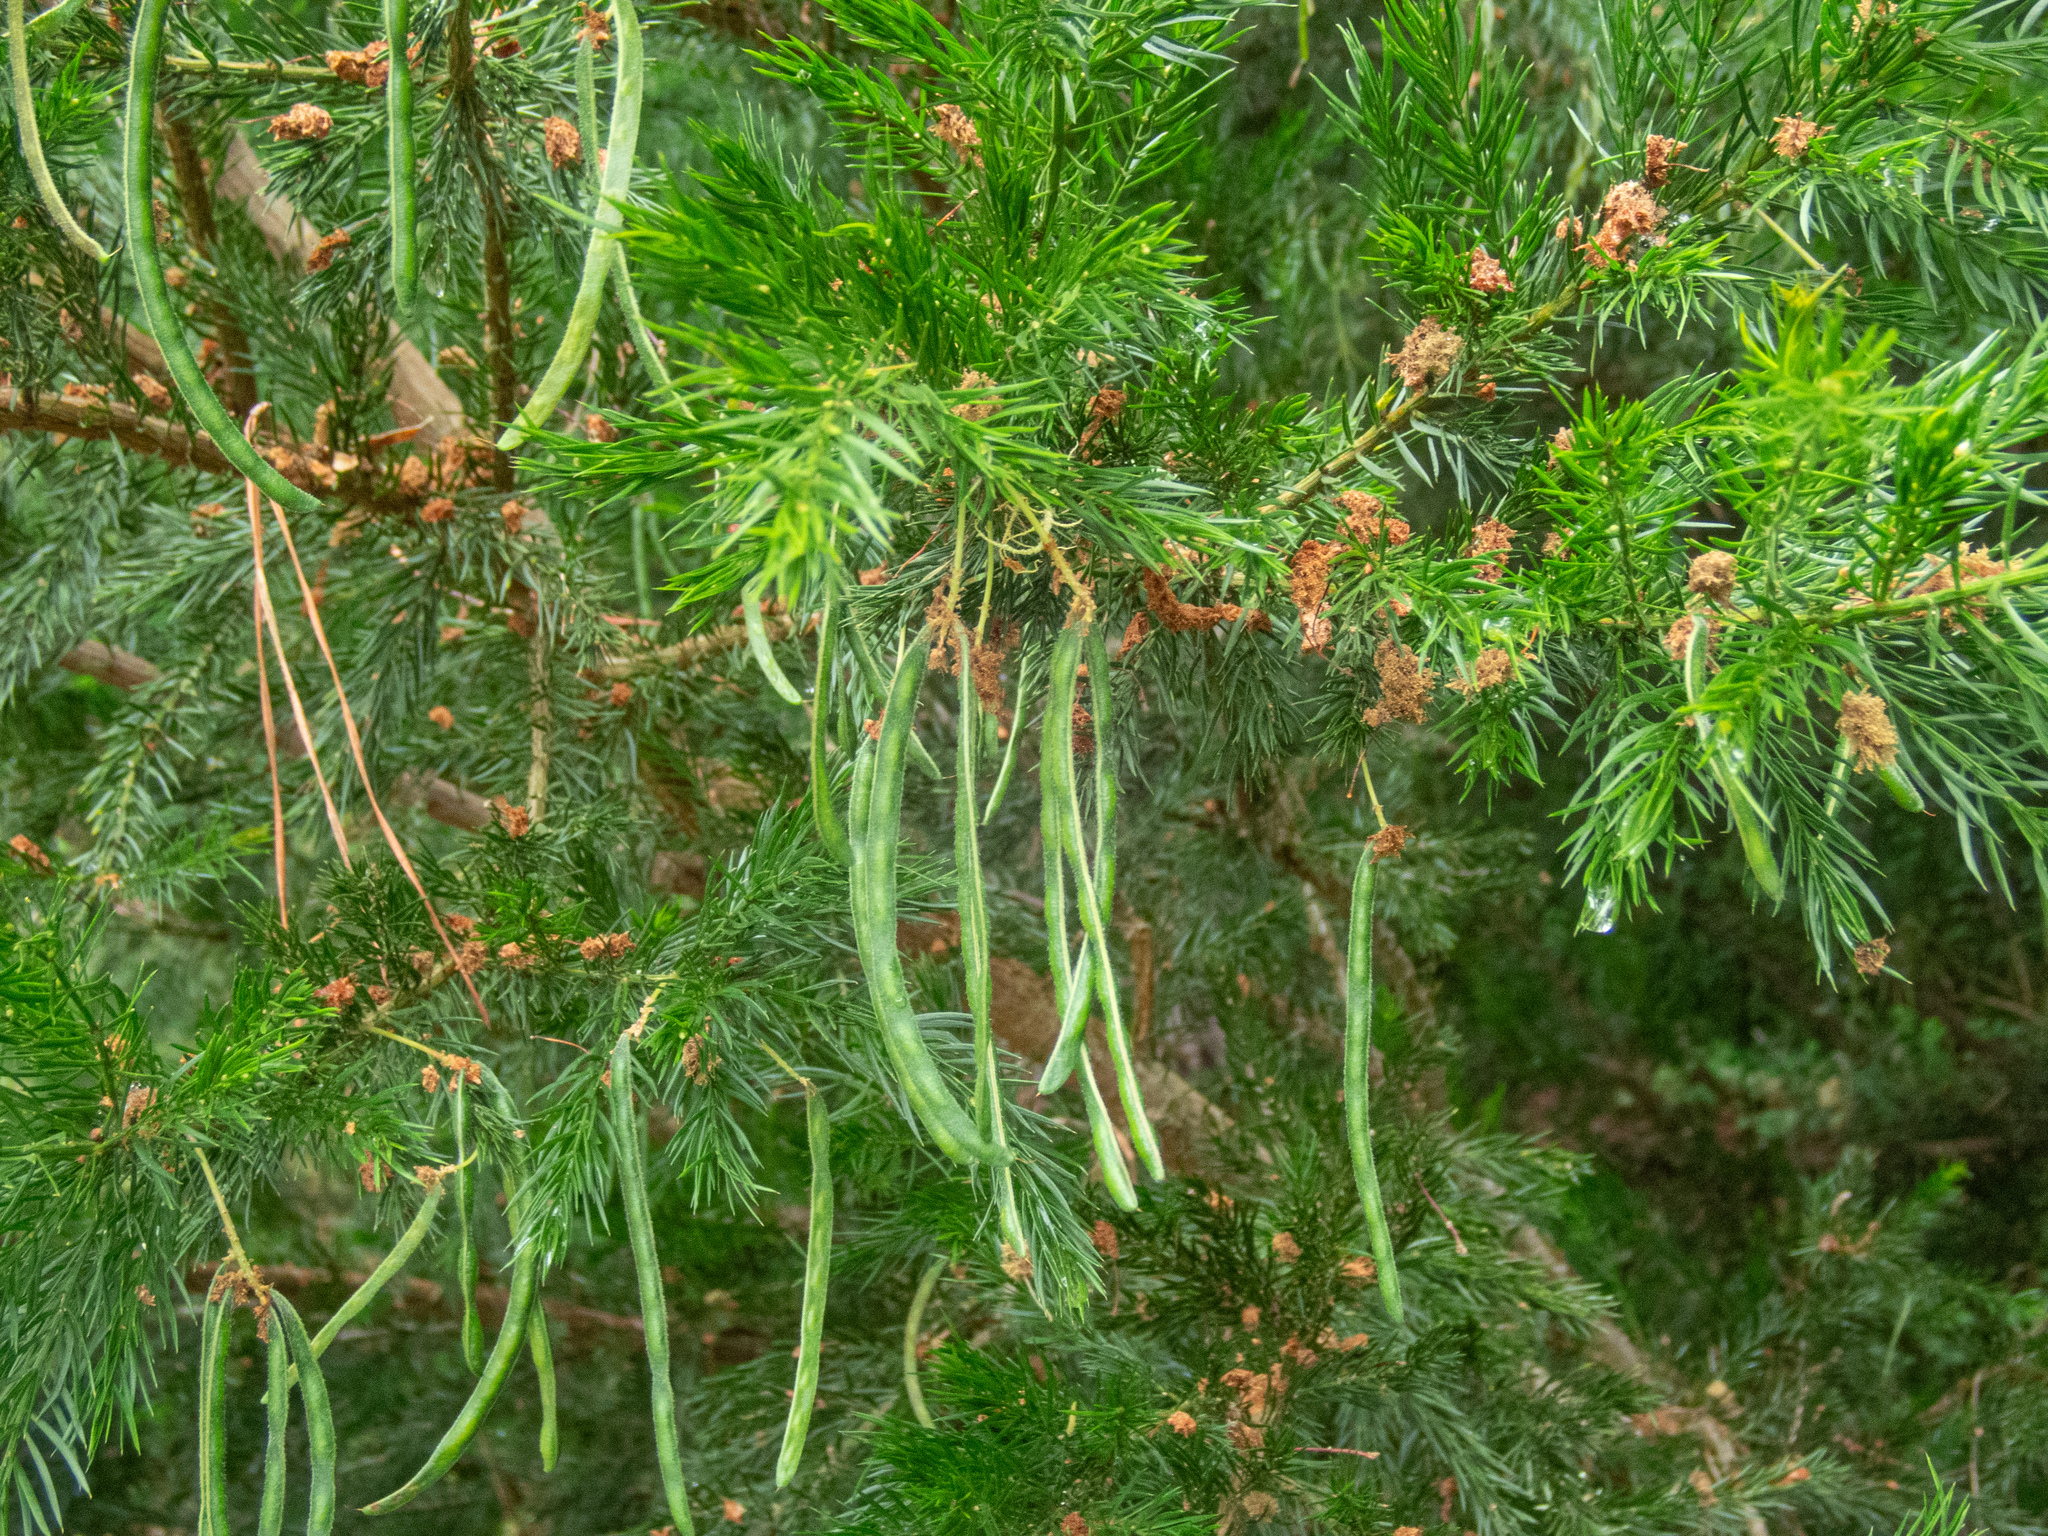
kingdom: Plantae
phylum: Tracheophyta
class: Magnoliopsida
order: Fabales
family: Fabaceae
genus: Acacia
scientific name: Acacia verticillata
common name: Prickly moses
